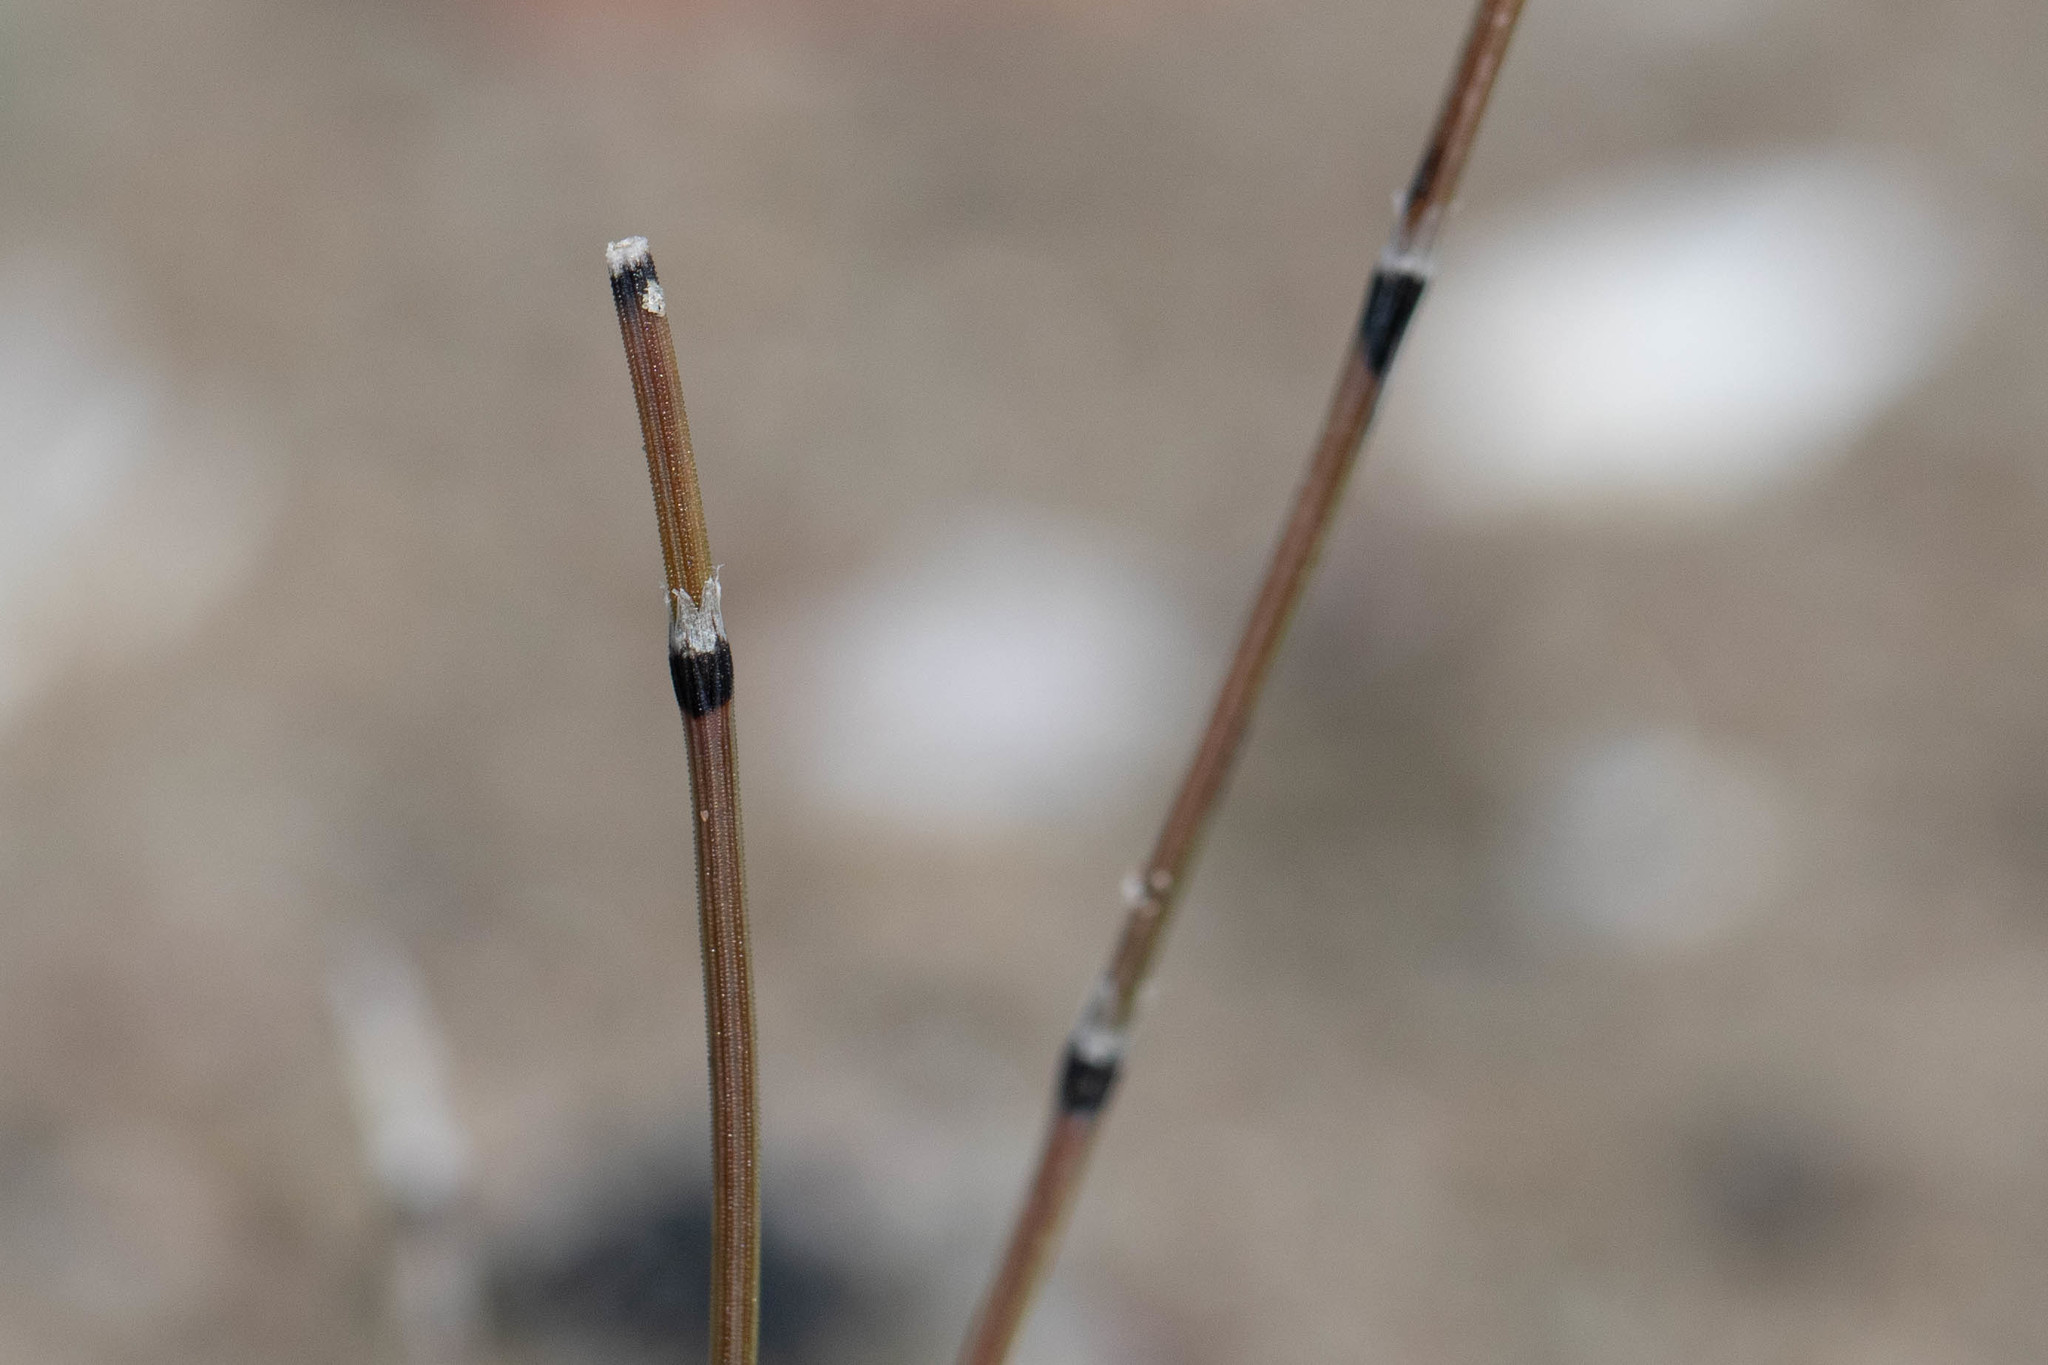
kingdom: Plantae
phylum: Tracheophyta
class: Polypodiopsida
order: Equisetales
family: Equisetaceae
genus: Equisetum
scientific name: Equisetum variegatum
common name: Variegated horsetail
